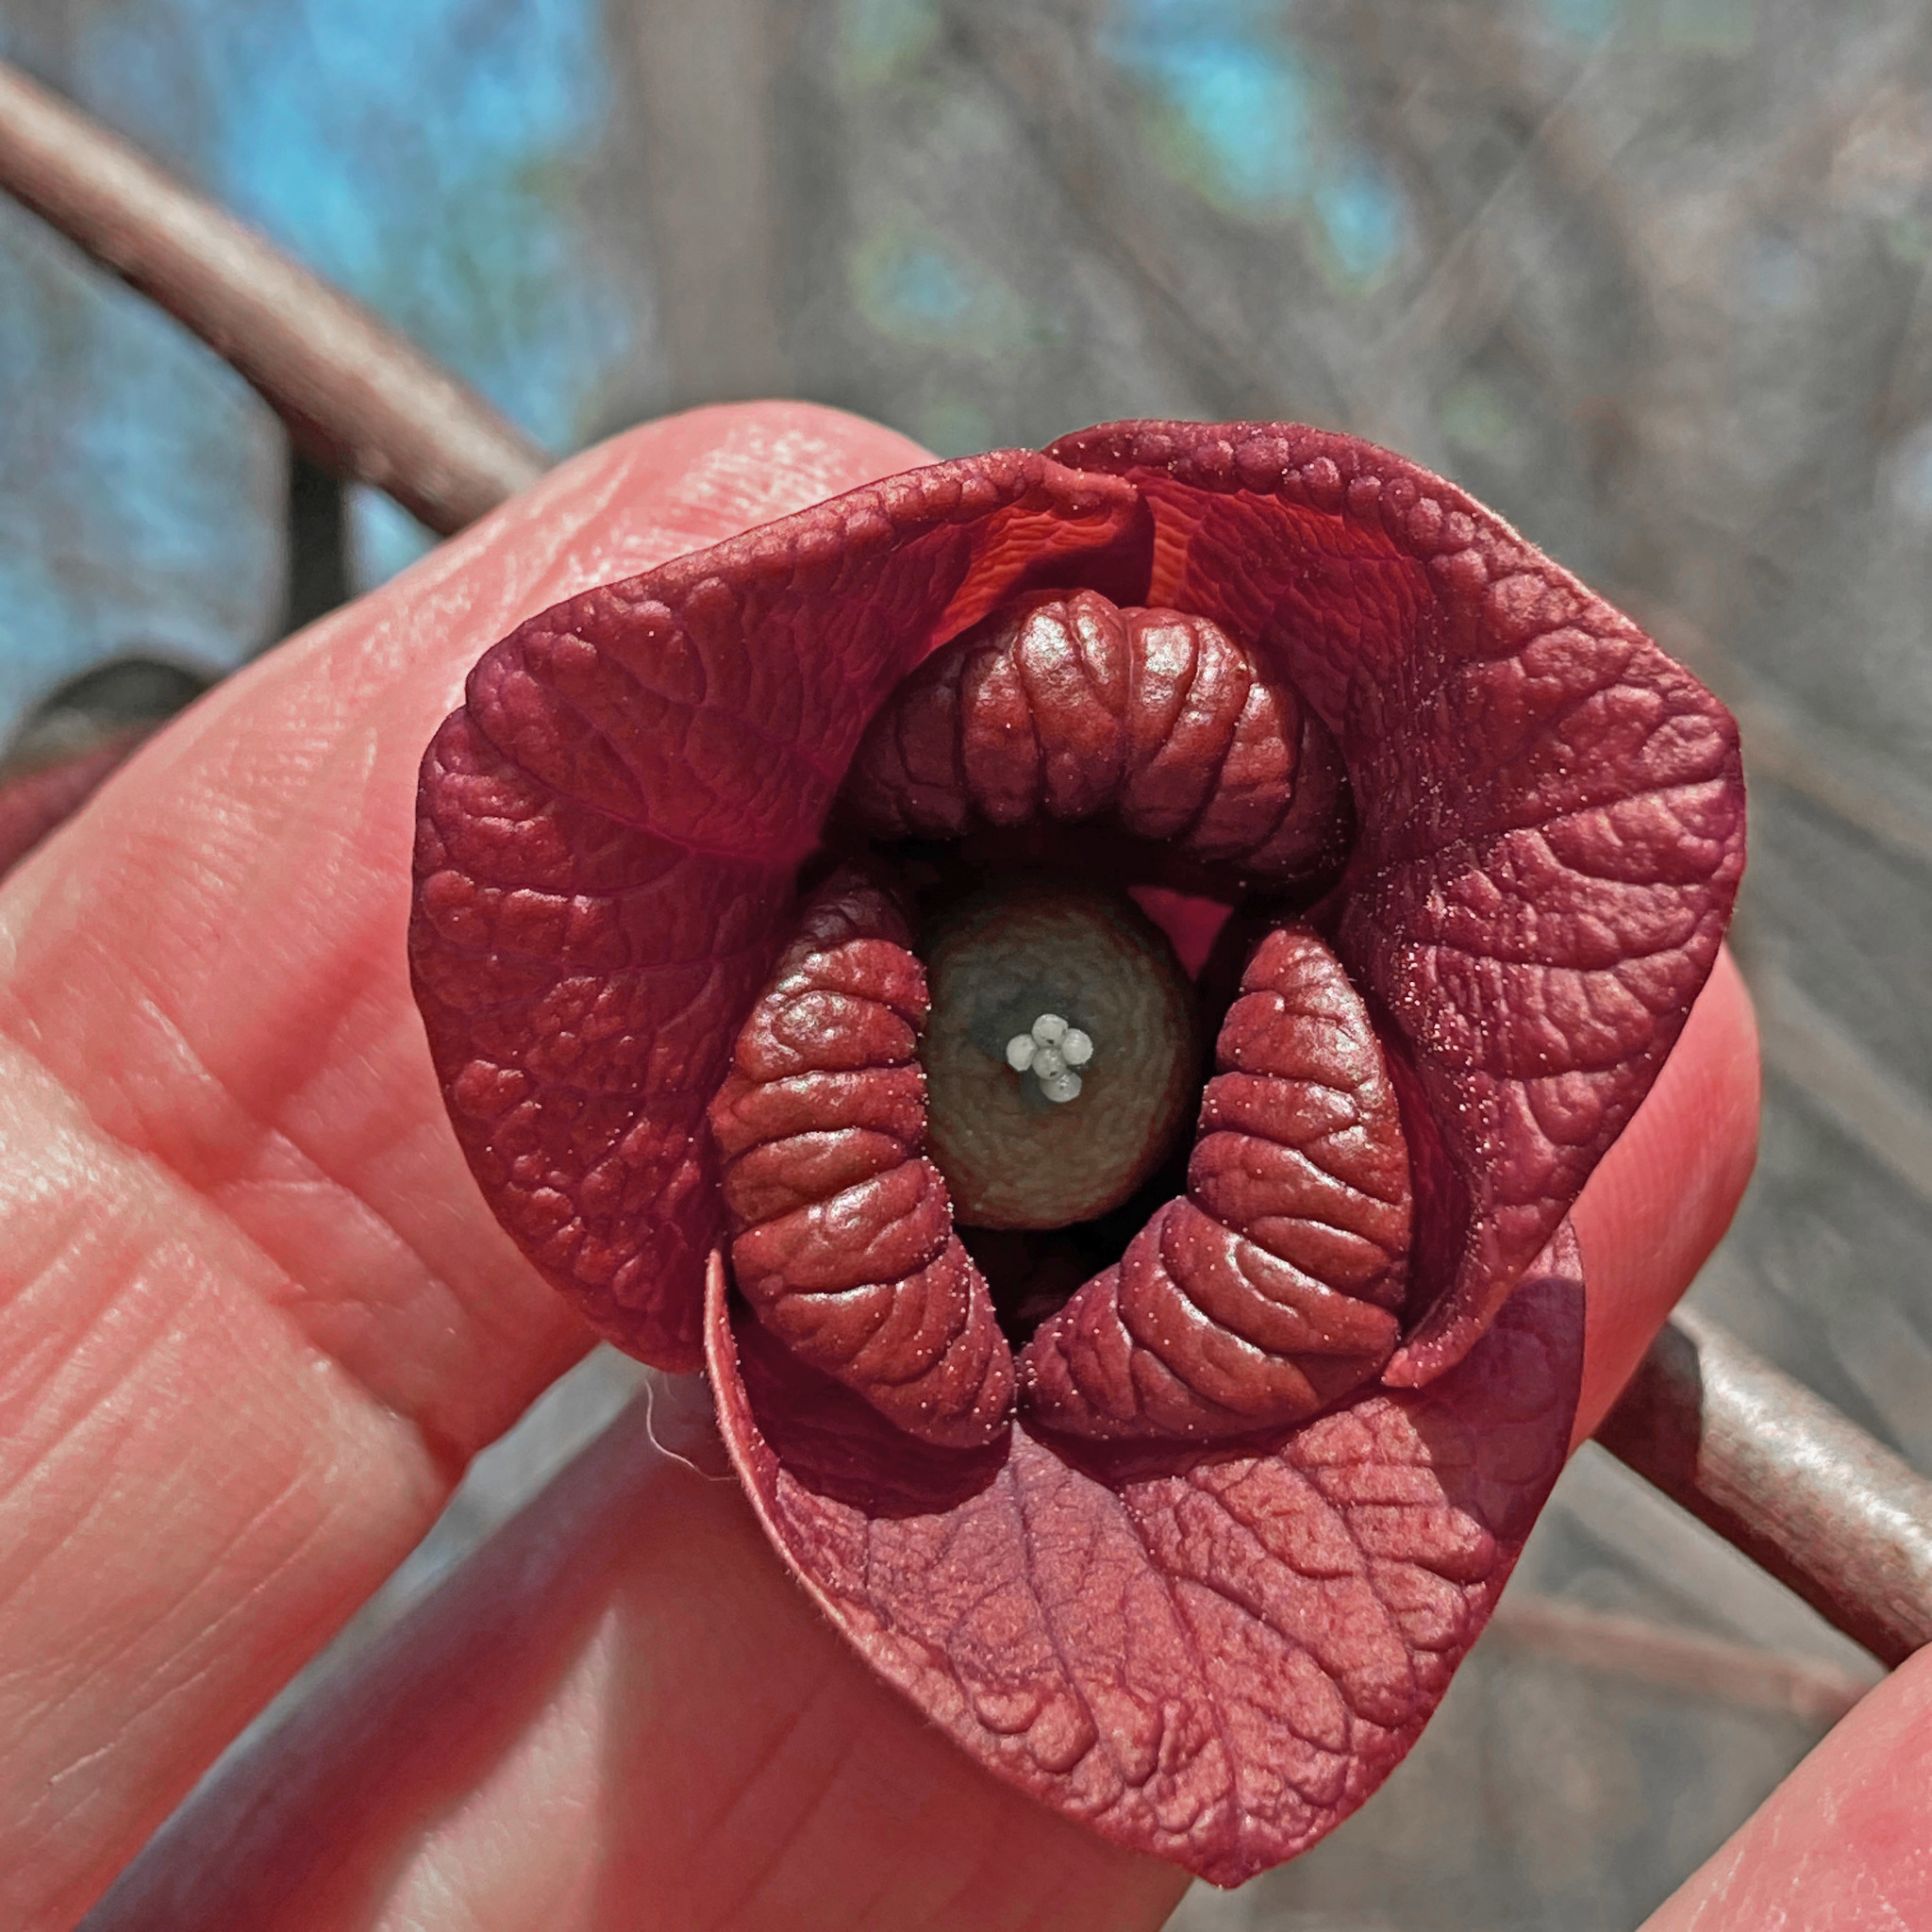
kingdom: Plantae
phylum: Tracheophyta
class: Magnoliopsida
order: Magnoliales
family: Annonaceae
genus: Asimina
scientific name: Asimina triloba
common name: Dog-banana
